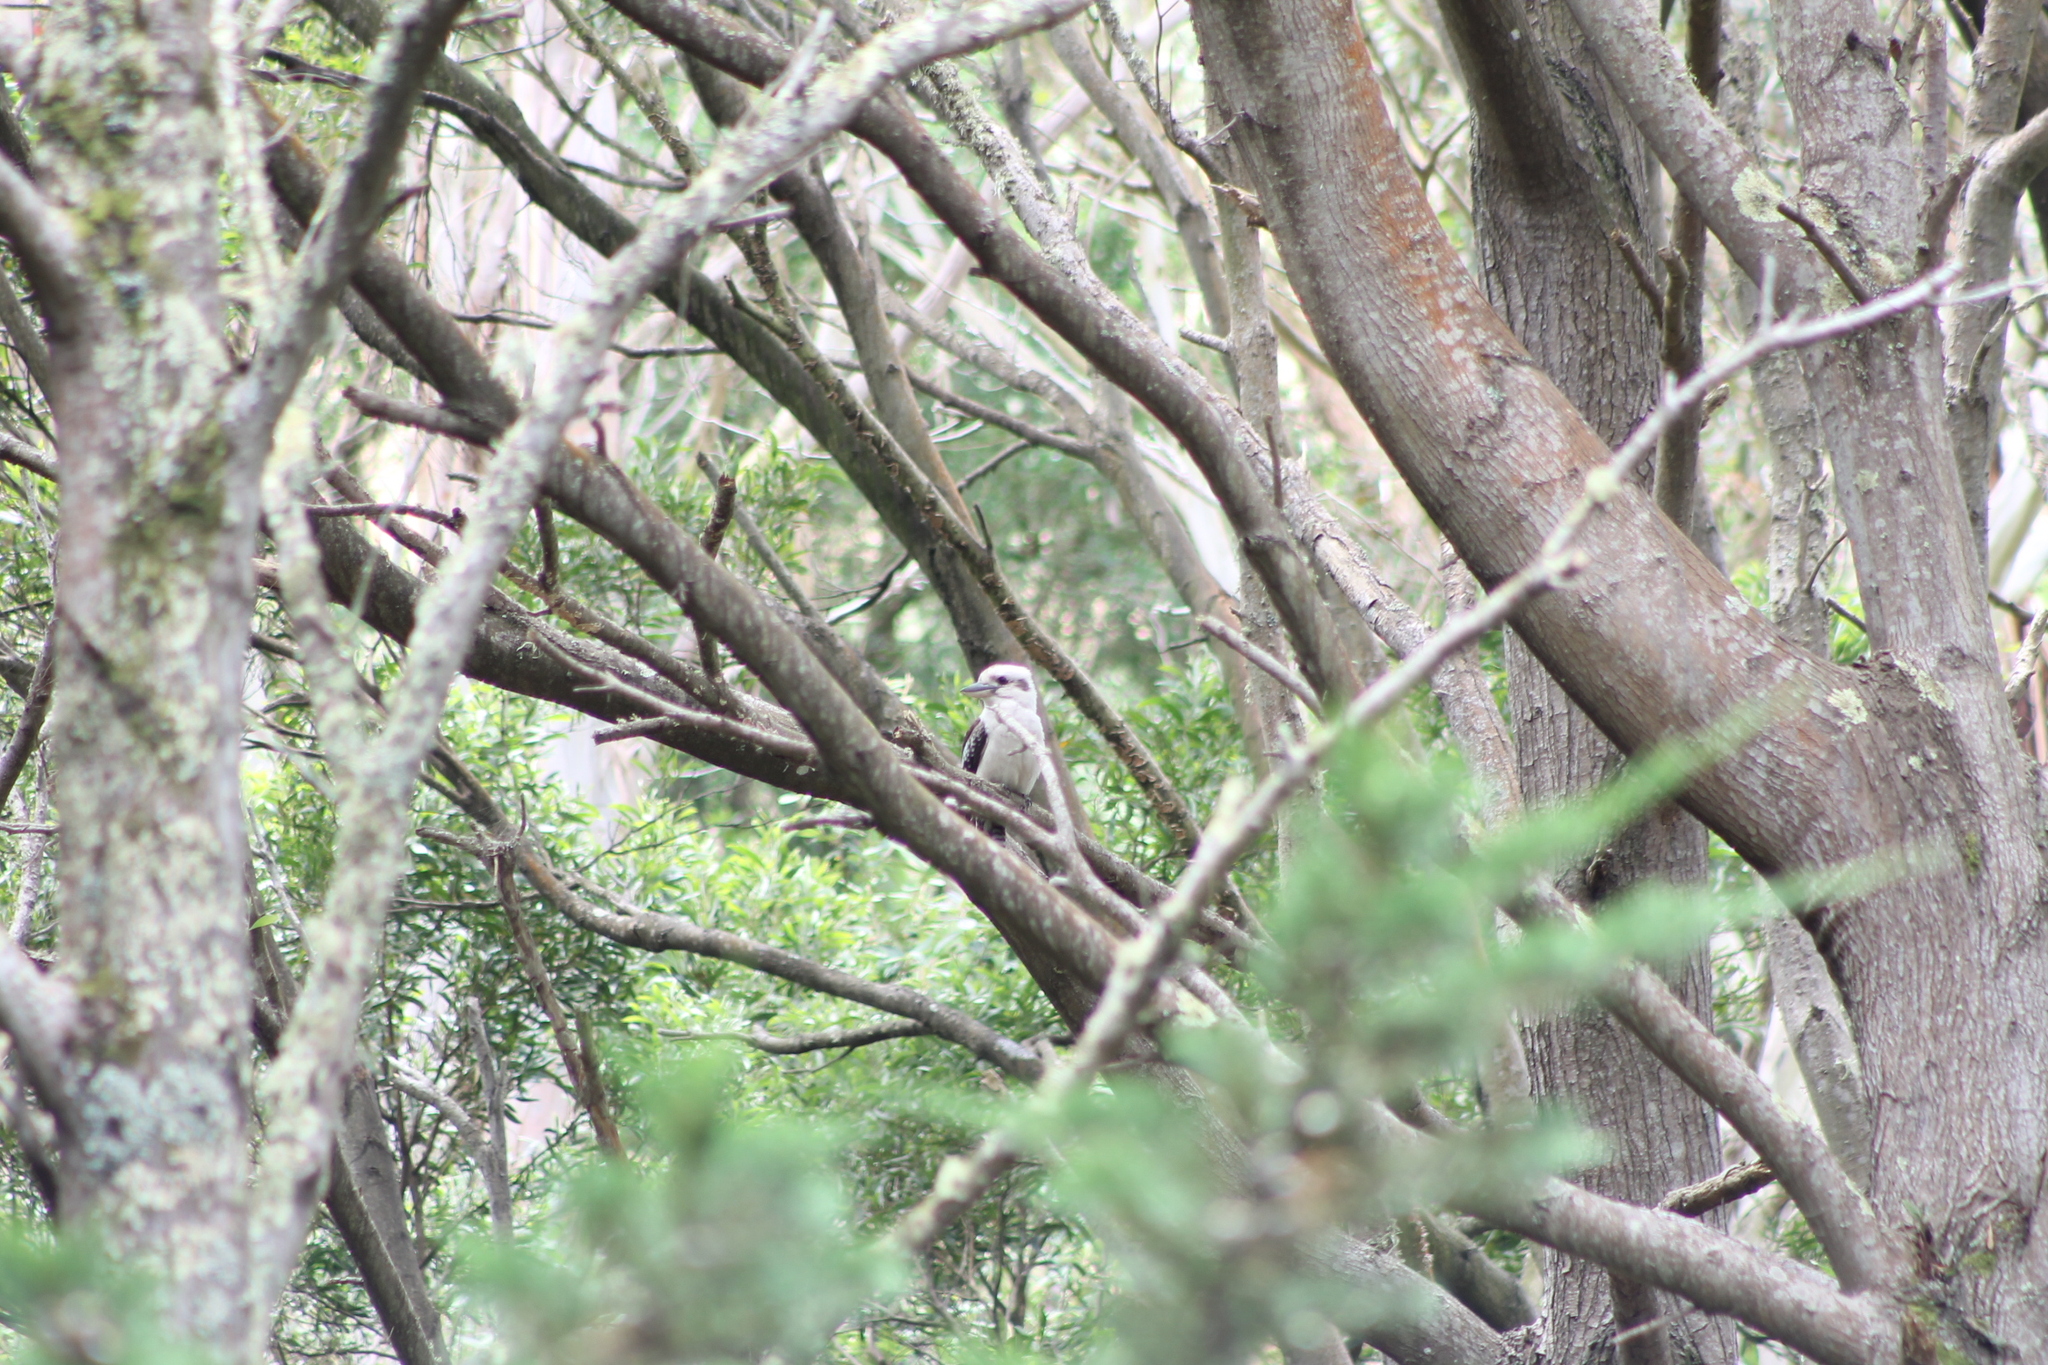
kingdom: Animalia
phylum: Chordata
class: Aves
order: Coraciiformes
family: Alcedinidae
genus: Dacelo
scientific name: Dacelo novaeguineae
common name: Laughing kookaburra
